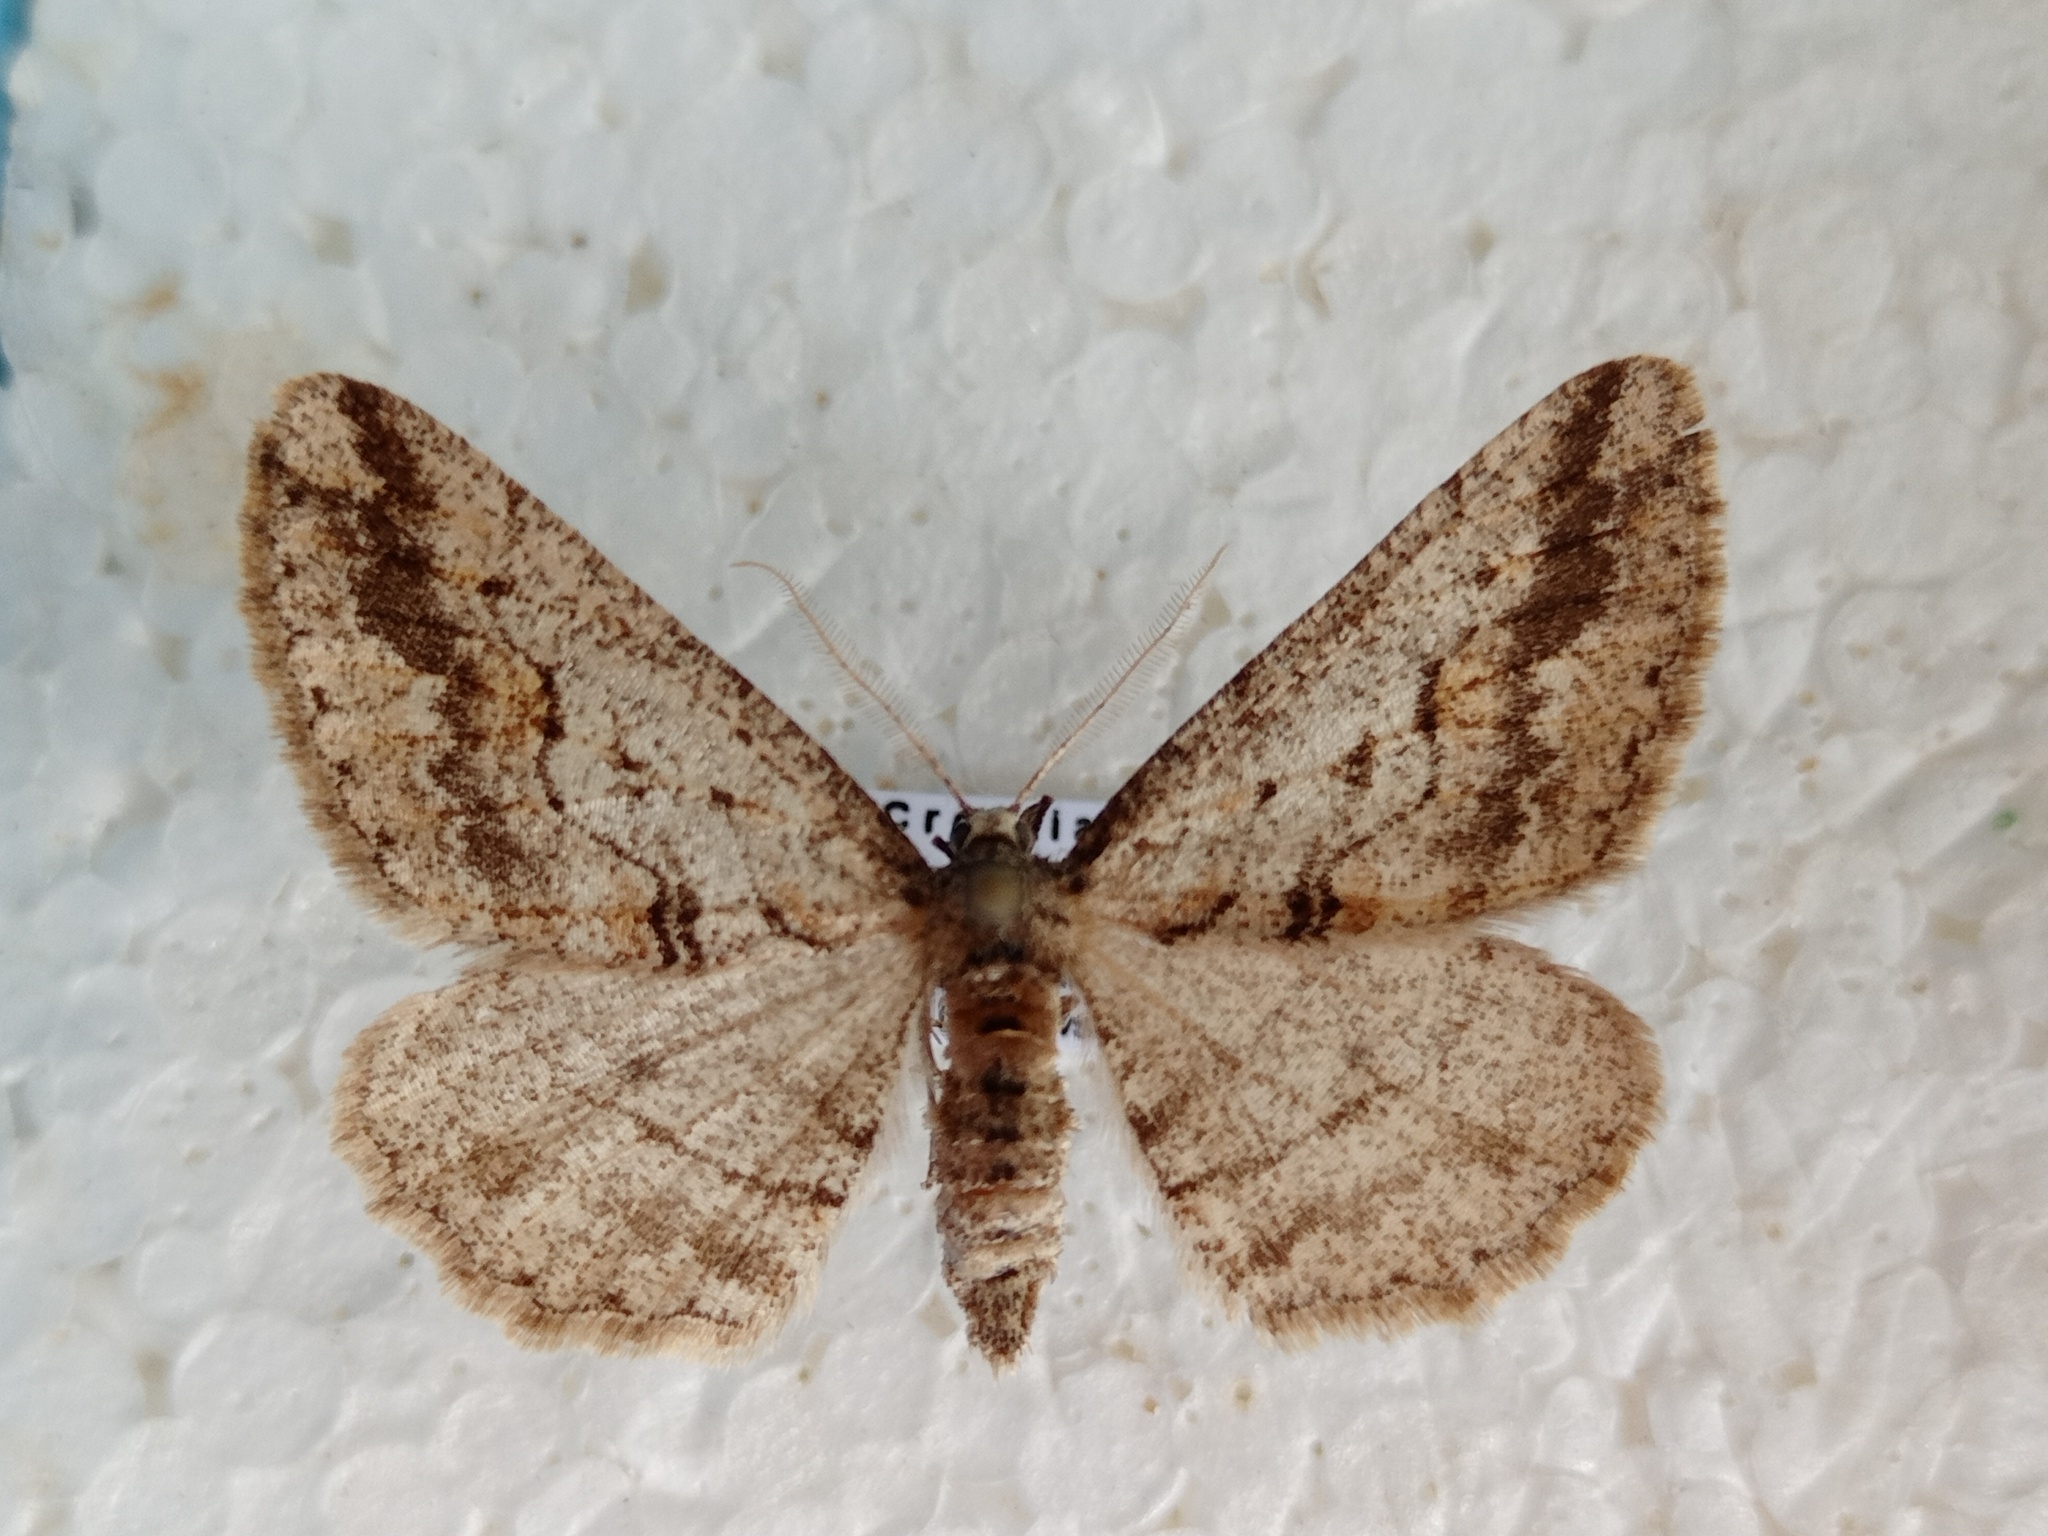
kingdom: Animalia
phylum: Arthropoda
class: Insecta
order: Lepidoptera
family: Geometridae
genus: Agriopis
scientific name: Agriopis bajaria
